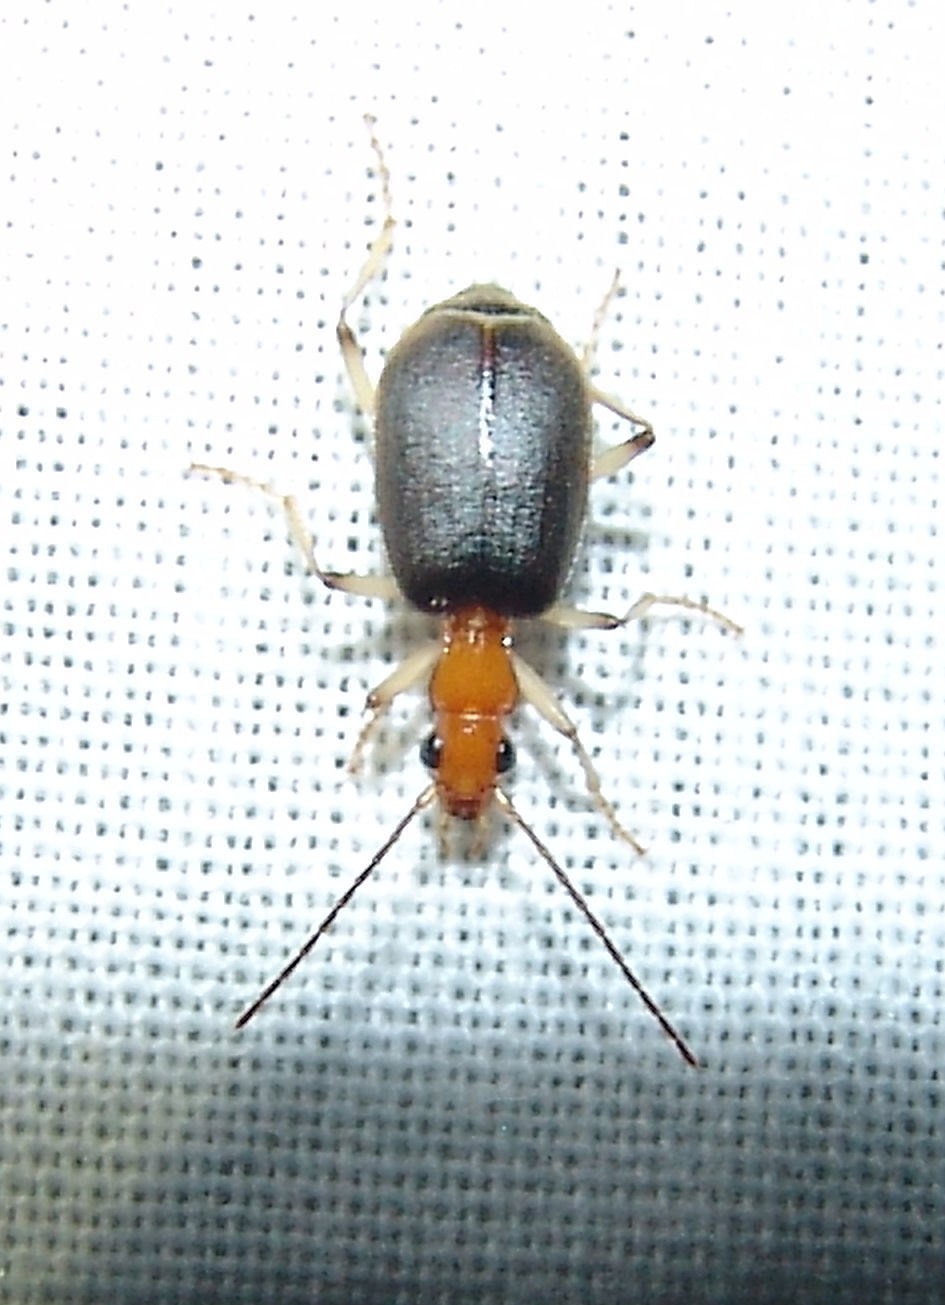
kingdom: Animalia
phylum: Arthropoda
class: Insecta
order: Coleoptera
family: Carabidae
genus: Brachinus
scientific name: Brachinus adustipennis
